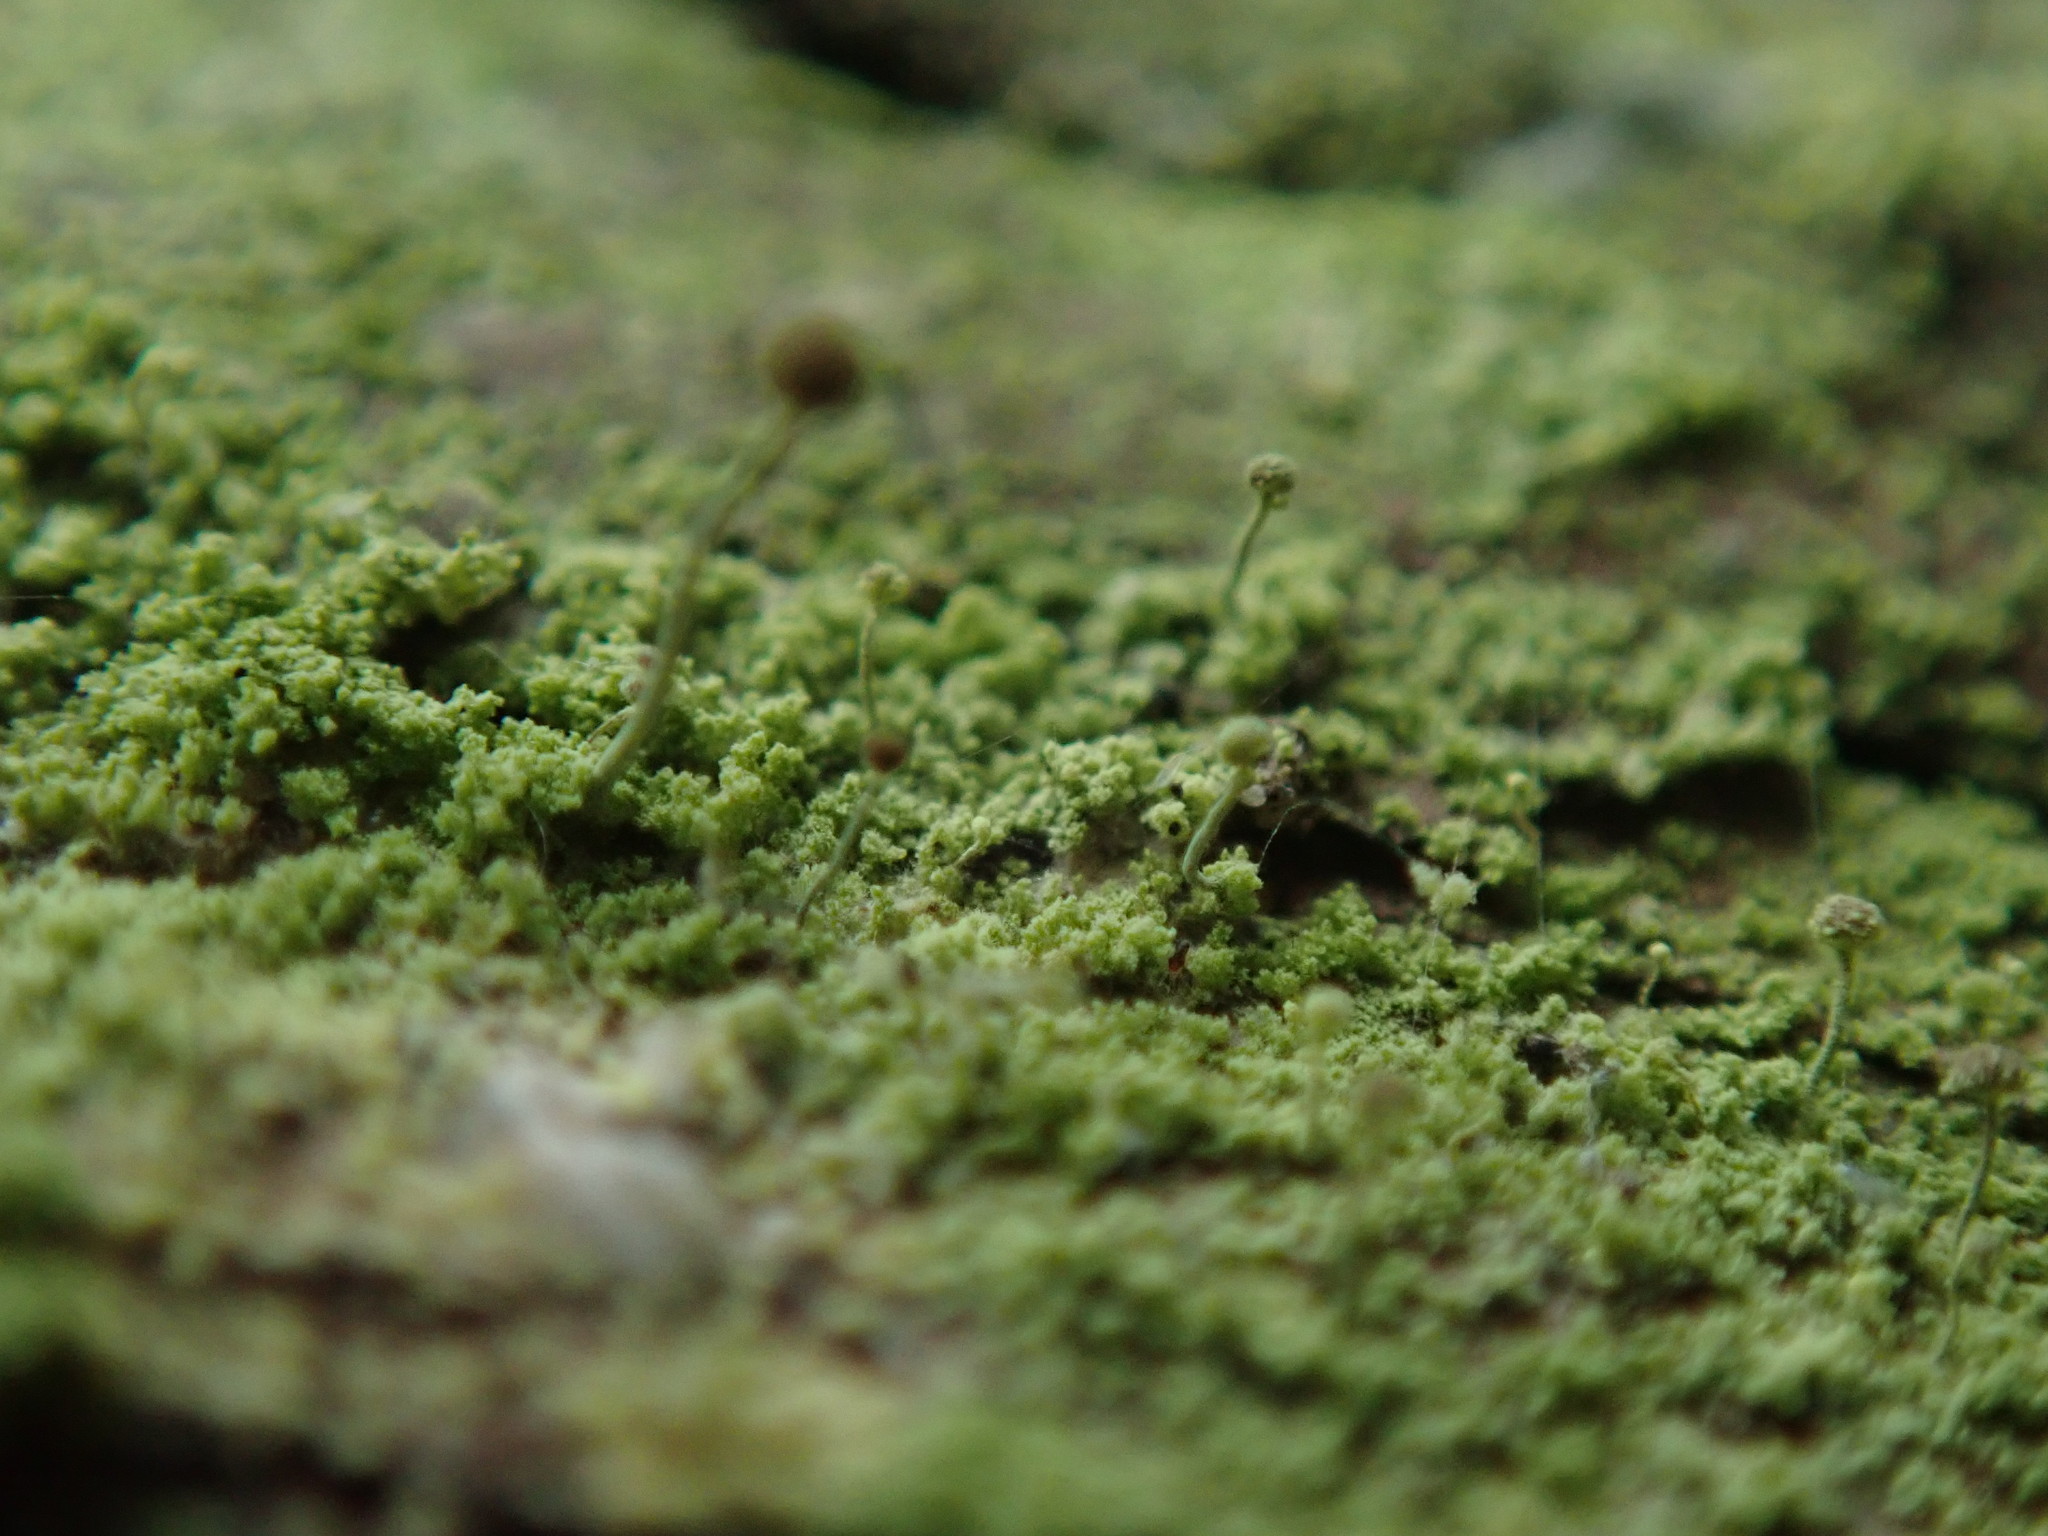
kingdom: Fungi
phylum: Ascomycota
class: Coniocybomycetes
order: Coniocybales
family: Coniocybaceae
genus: Chaenotheca
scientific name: Chaenotheca furfuracea
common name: Sulphur stubble lichen
